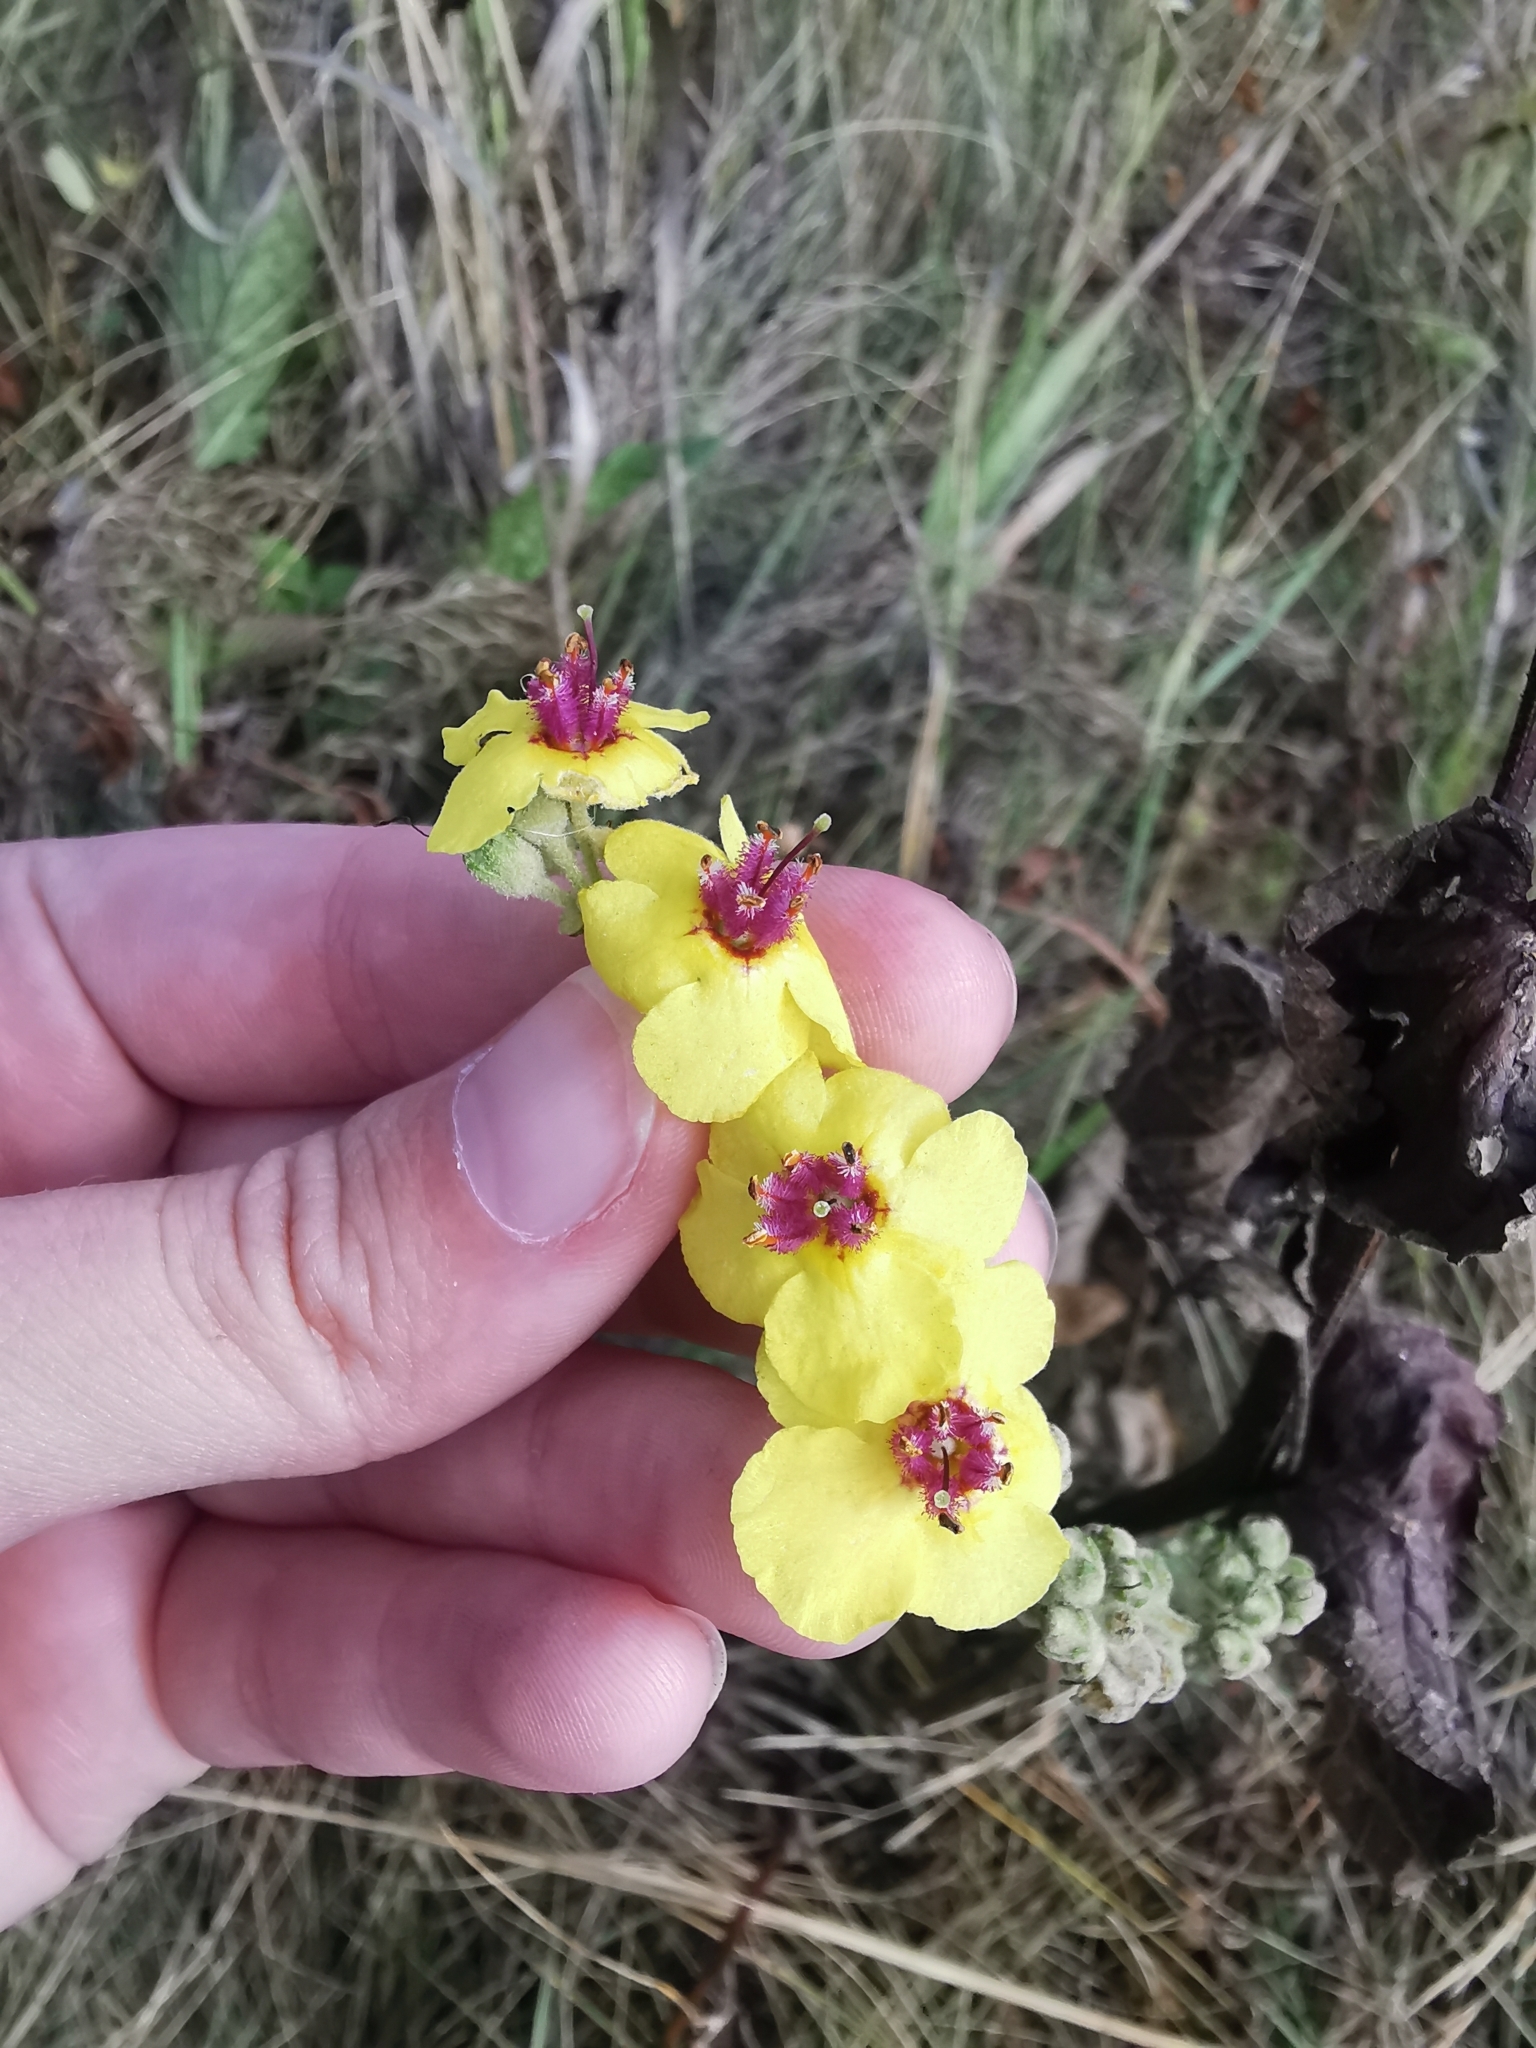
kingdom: Plantae
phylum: Tracheophyta
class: Magnoliopsida
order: Lamiales
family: Scrophulariaceae
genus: Verbascum
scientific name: Verbascum chaixii
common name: Nettle-leaved mullein
